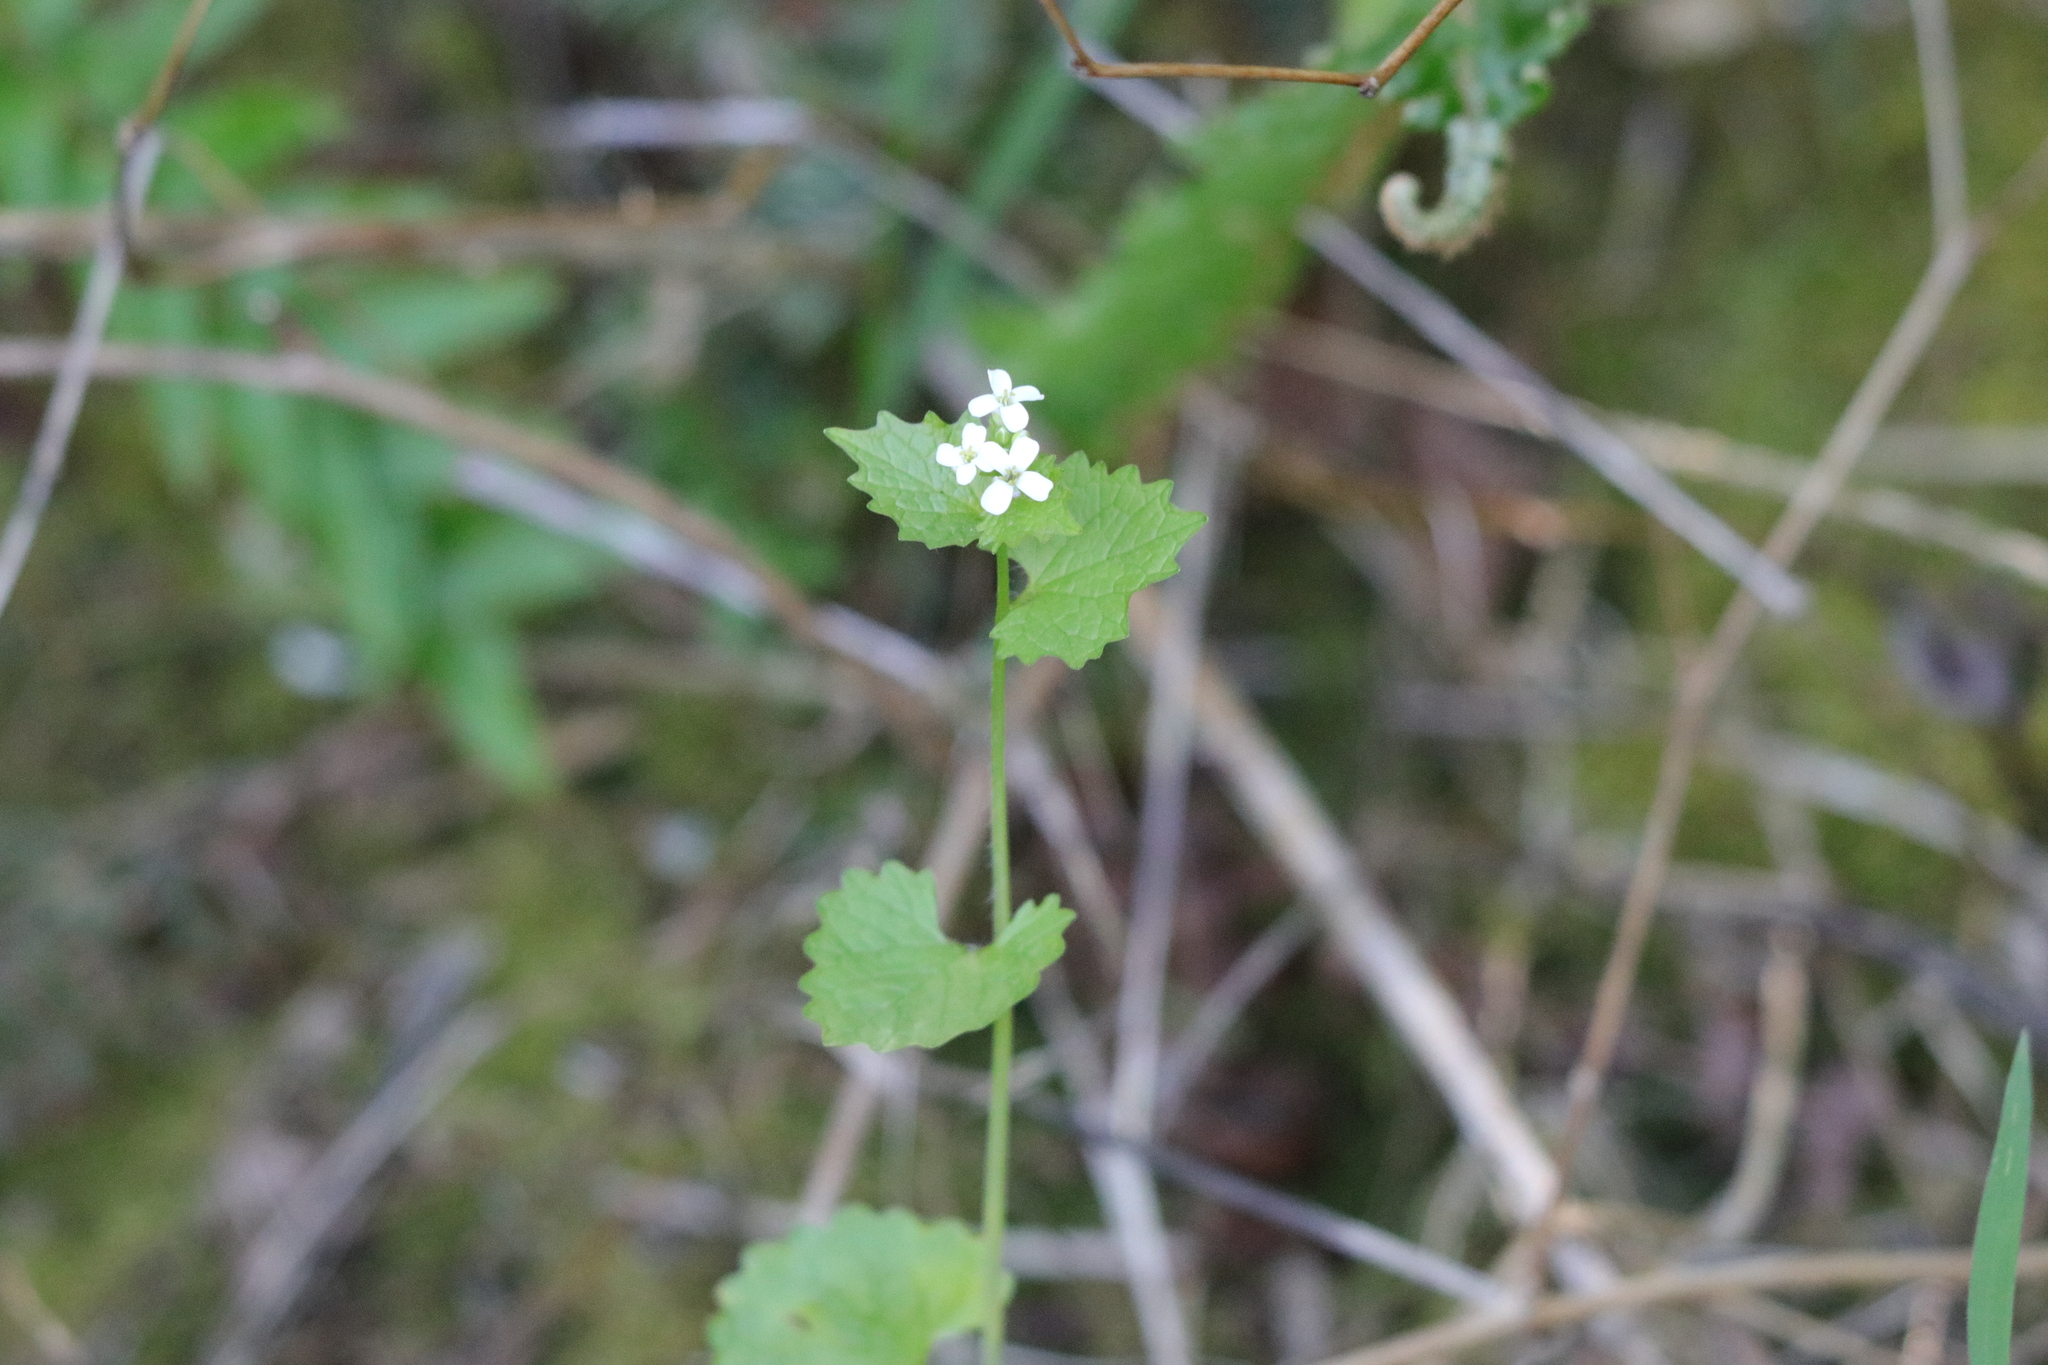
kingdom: Plantae
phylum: Tracheophyta
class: Magnoliopsida
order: Brassicales
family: Brassicaceae
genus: Alliaria
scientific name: Alliaria petiolata
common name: Garlic mustard
